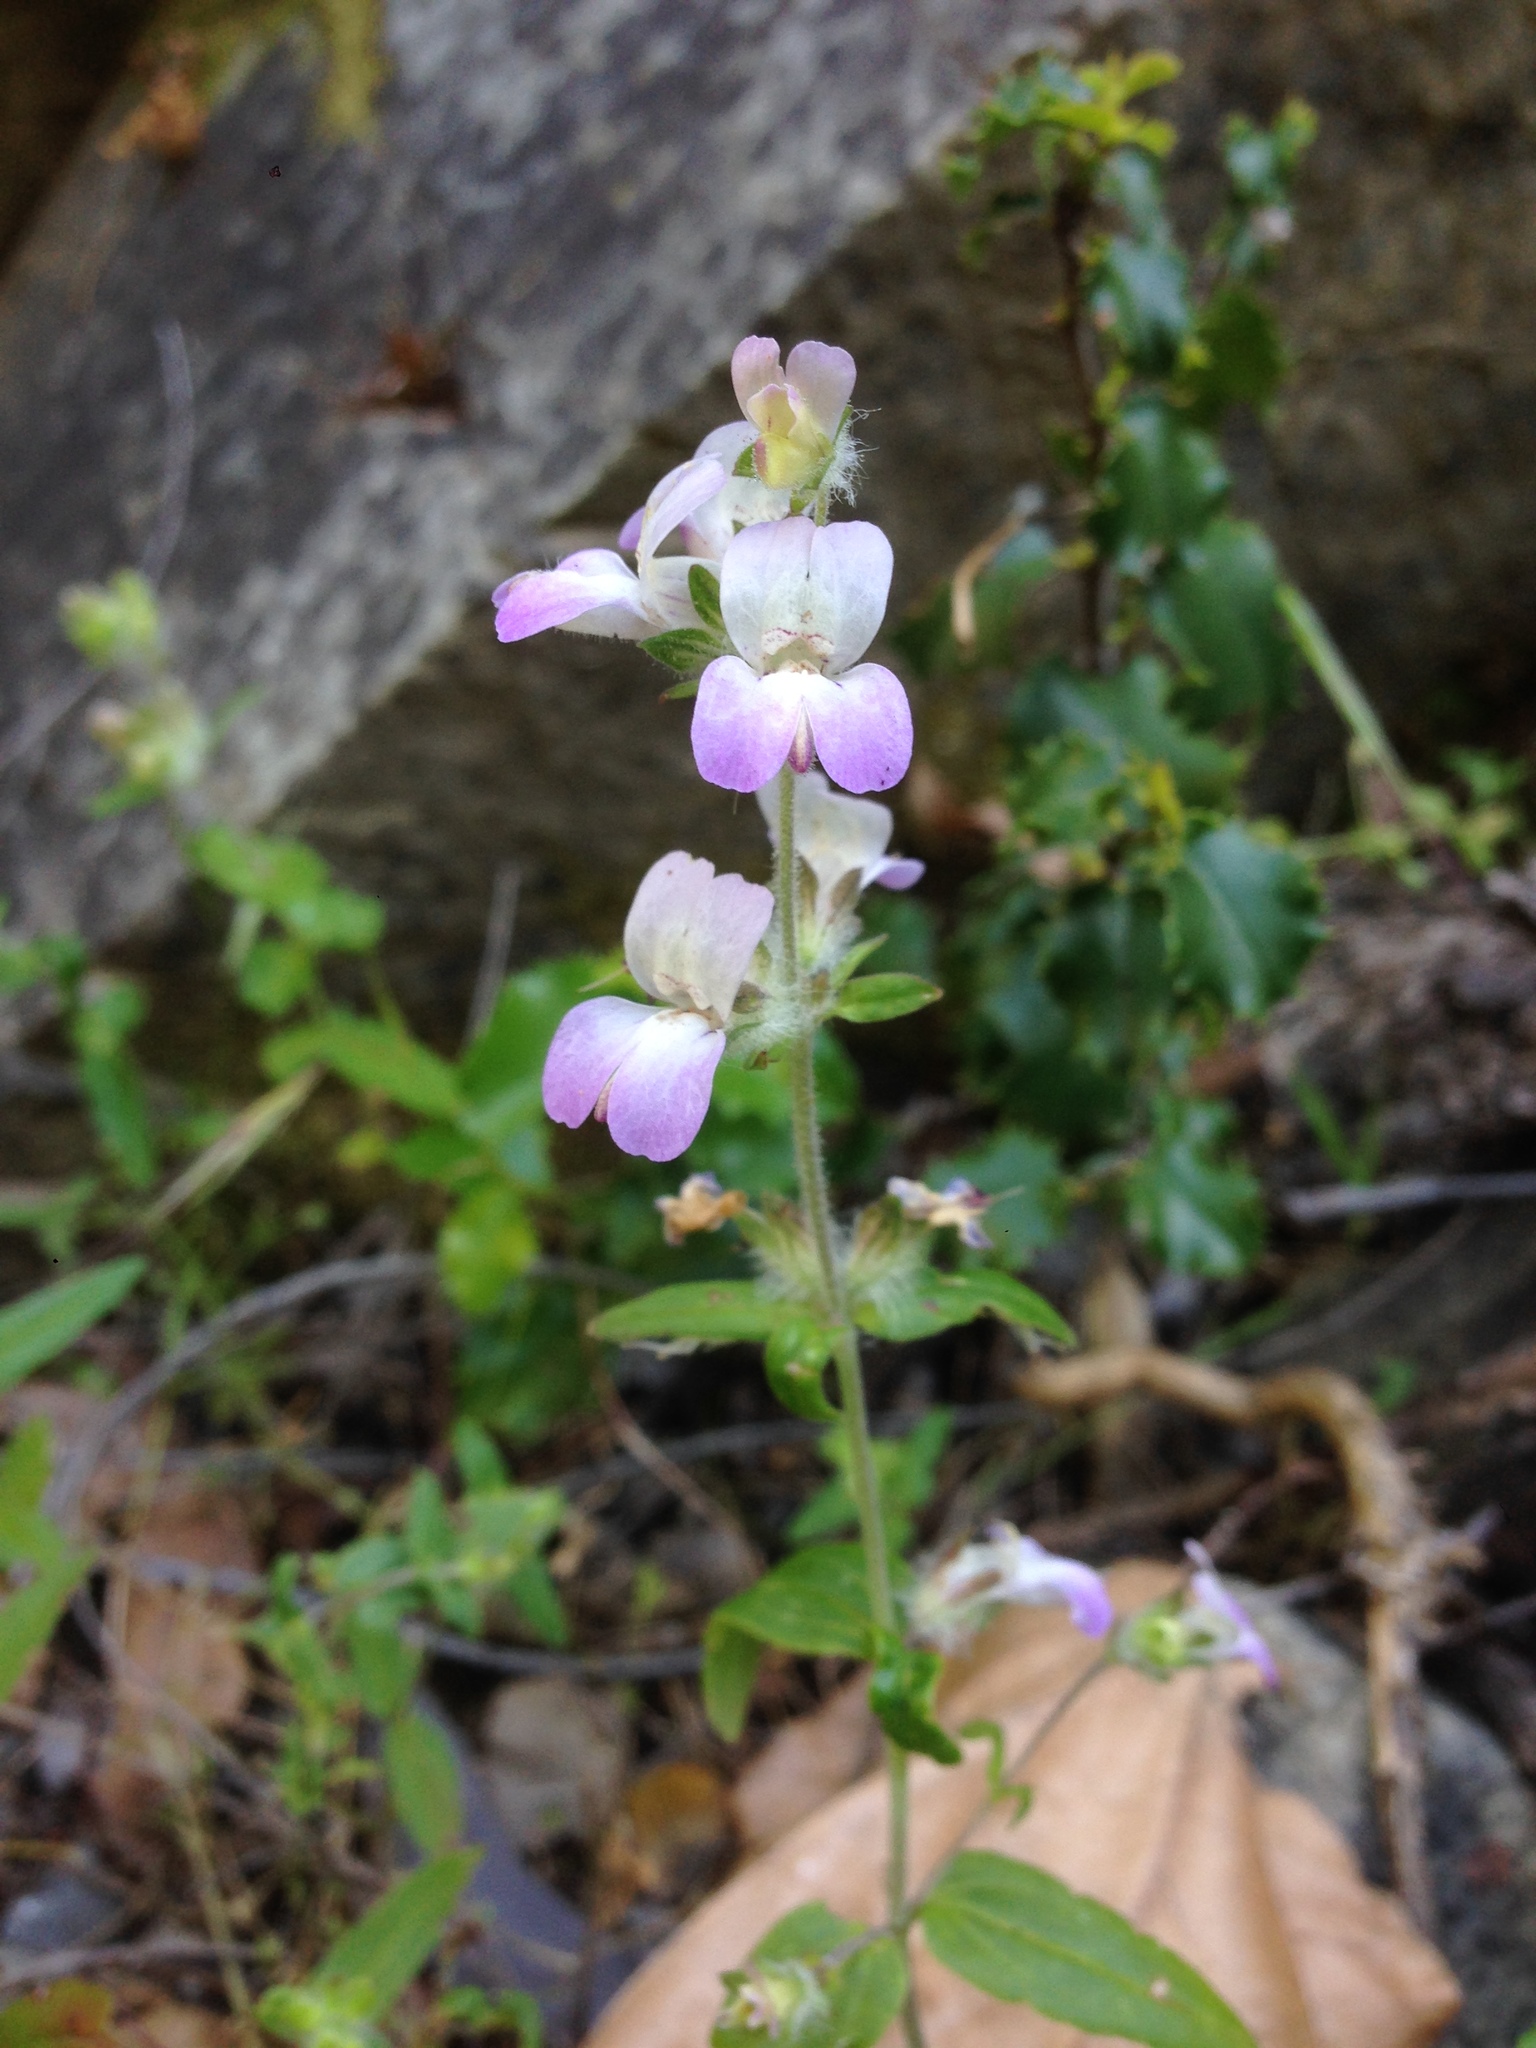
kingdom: Plantae
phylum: Tracheophyta
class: Magnoliopsida
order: Lamiales
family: Plantaginaceae
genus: Collinsia
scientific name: Collinsia heterophylla
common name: Chinese-houses
